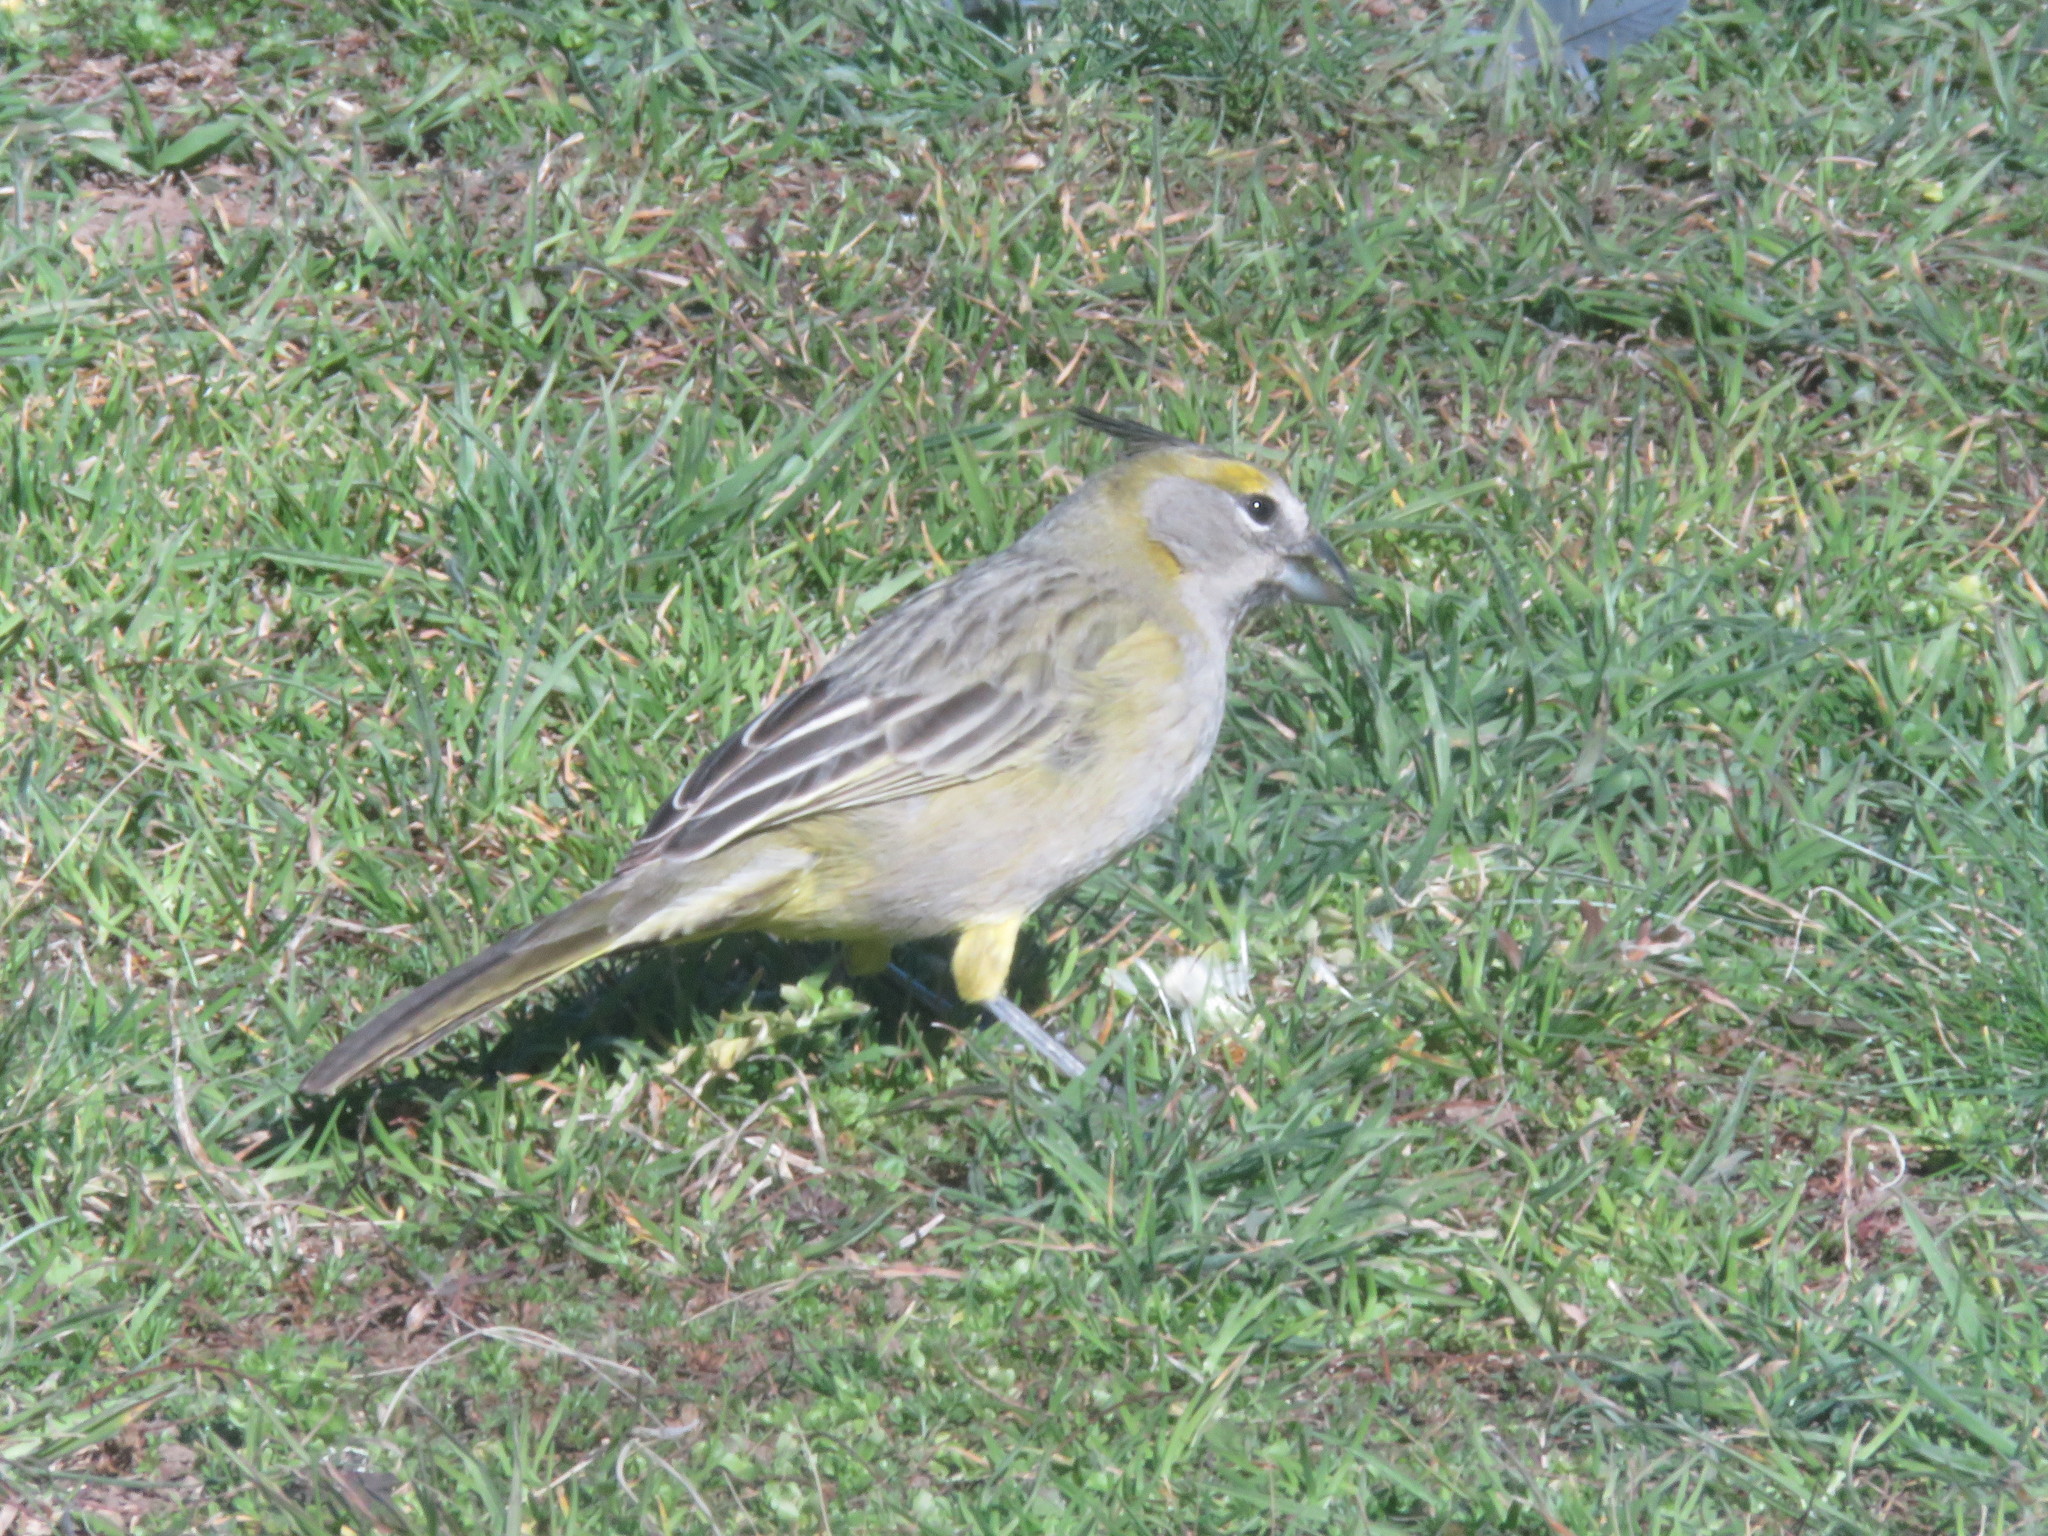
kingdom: Animalia
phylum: Chordata
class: Aves
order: Passeriformes
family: Thraupidae
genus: Gubernatrix
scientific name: Gubernatrix cristata
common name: Yellow cardinal
